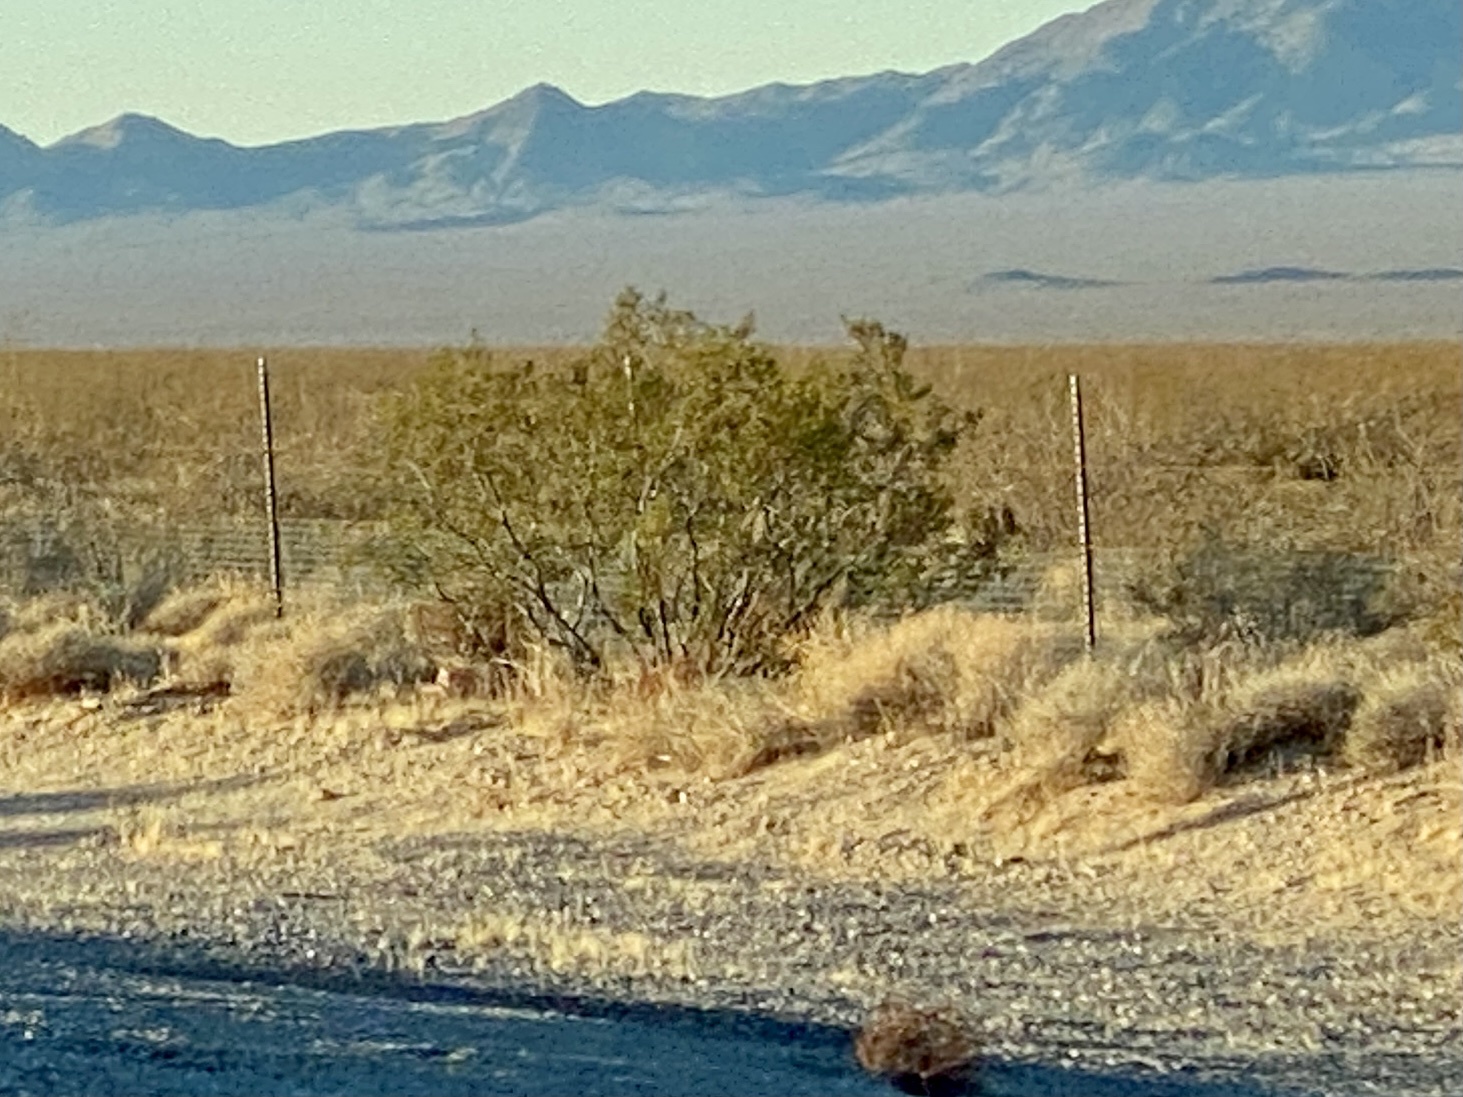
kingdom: Plantae
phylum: Tracheophyta
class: Magnoliopsida
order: Zygophyllales
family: Zygophyllaceae
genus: Larrea
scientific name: Larrea tridentata
